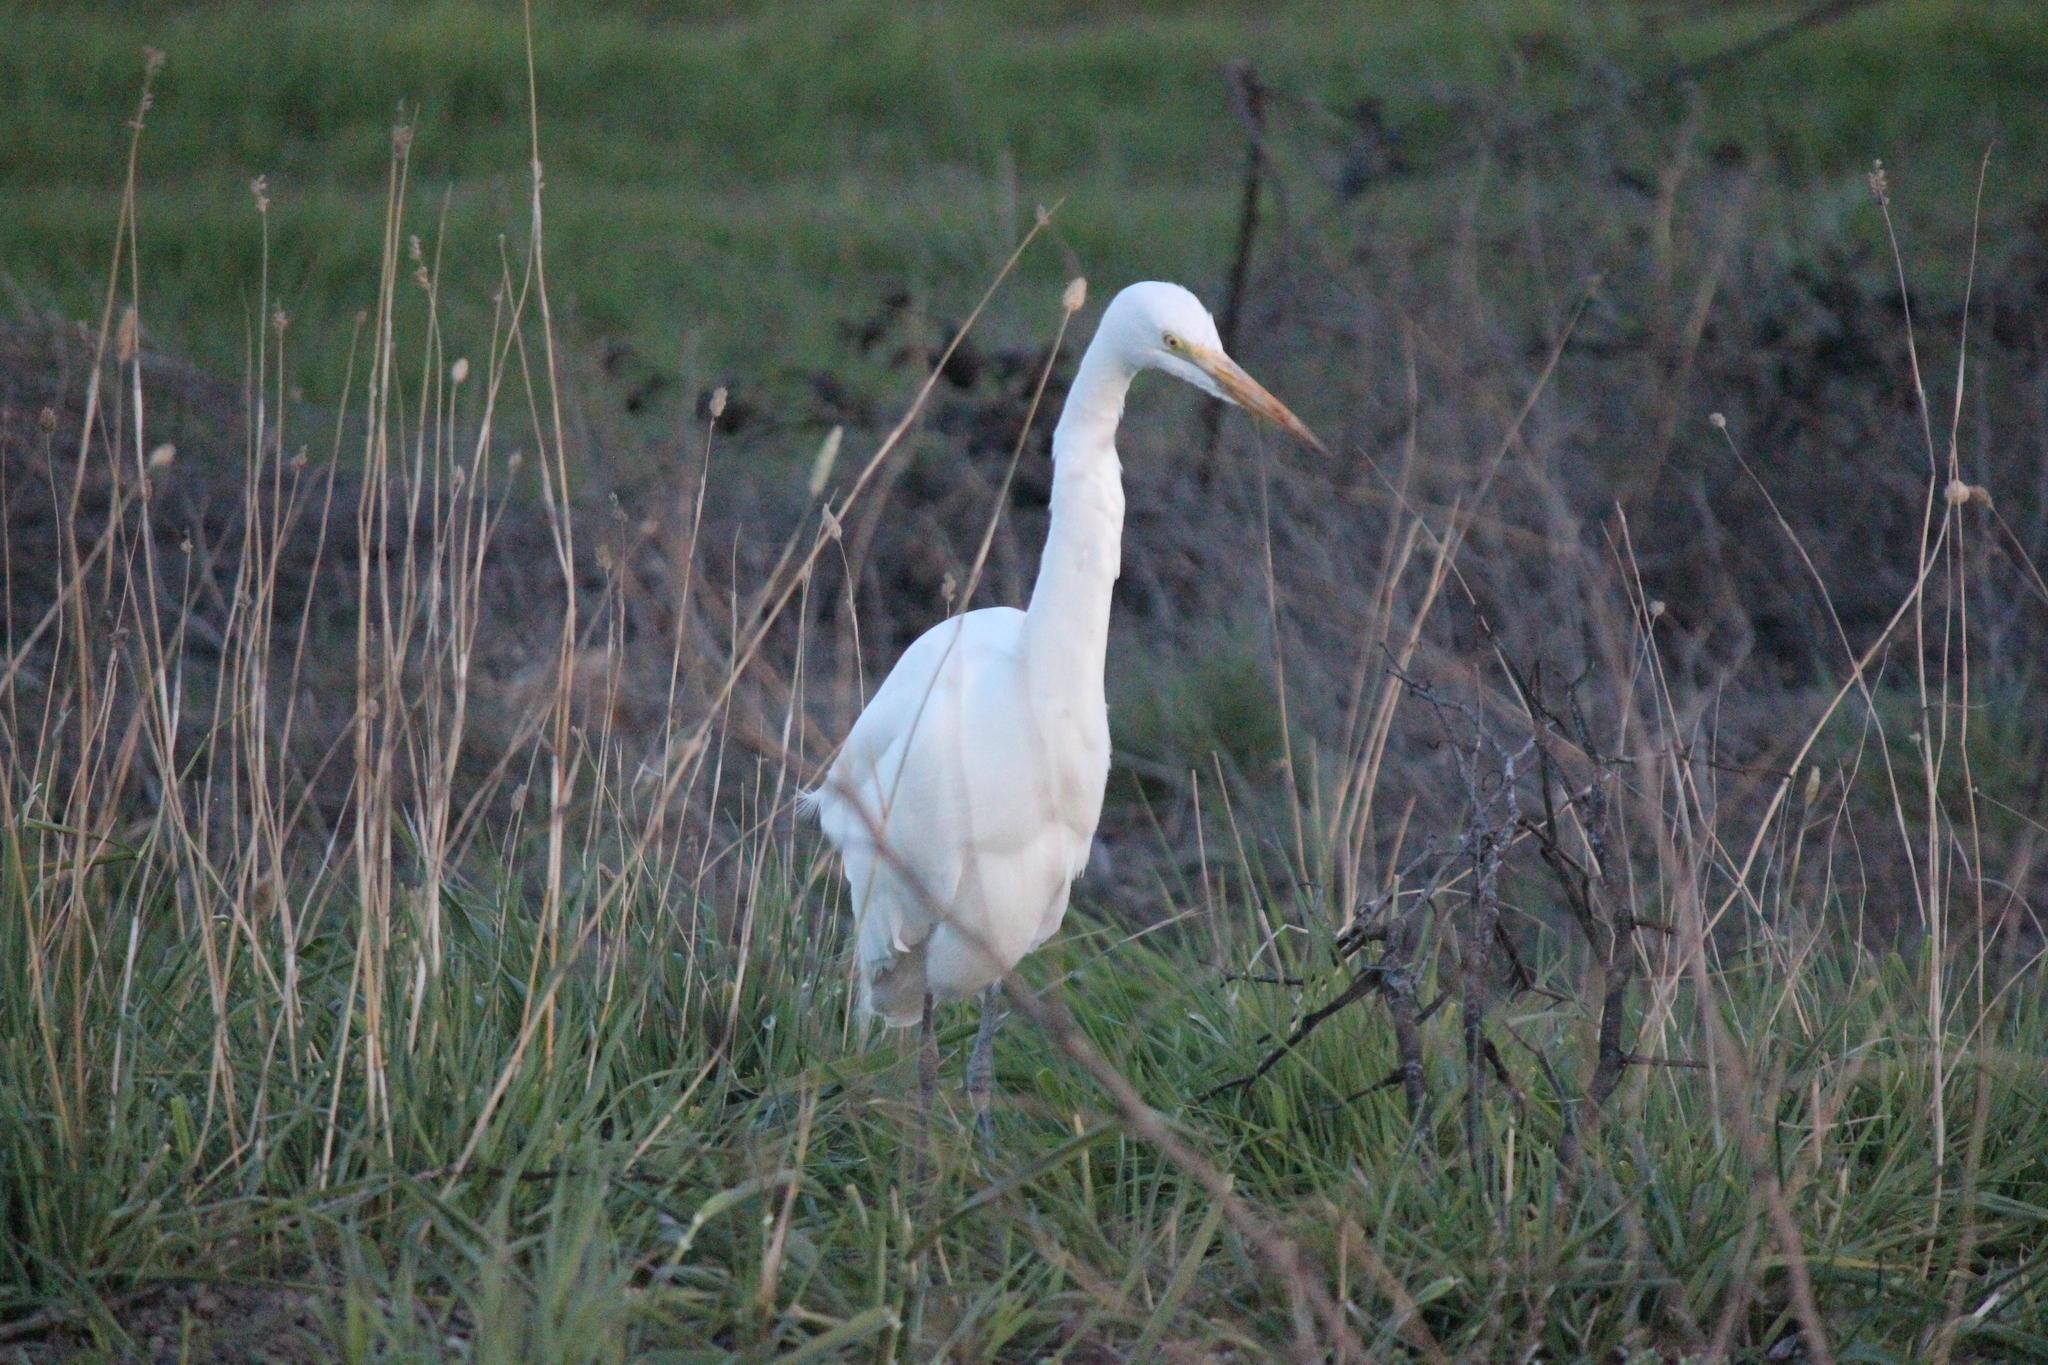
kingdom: Animalia
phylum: Chordata
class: Aves
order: Pelecaniformes
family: Ardeidae
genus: Ardea
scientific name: Ardea alba
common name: Great egret
